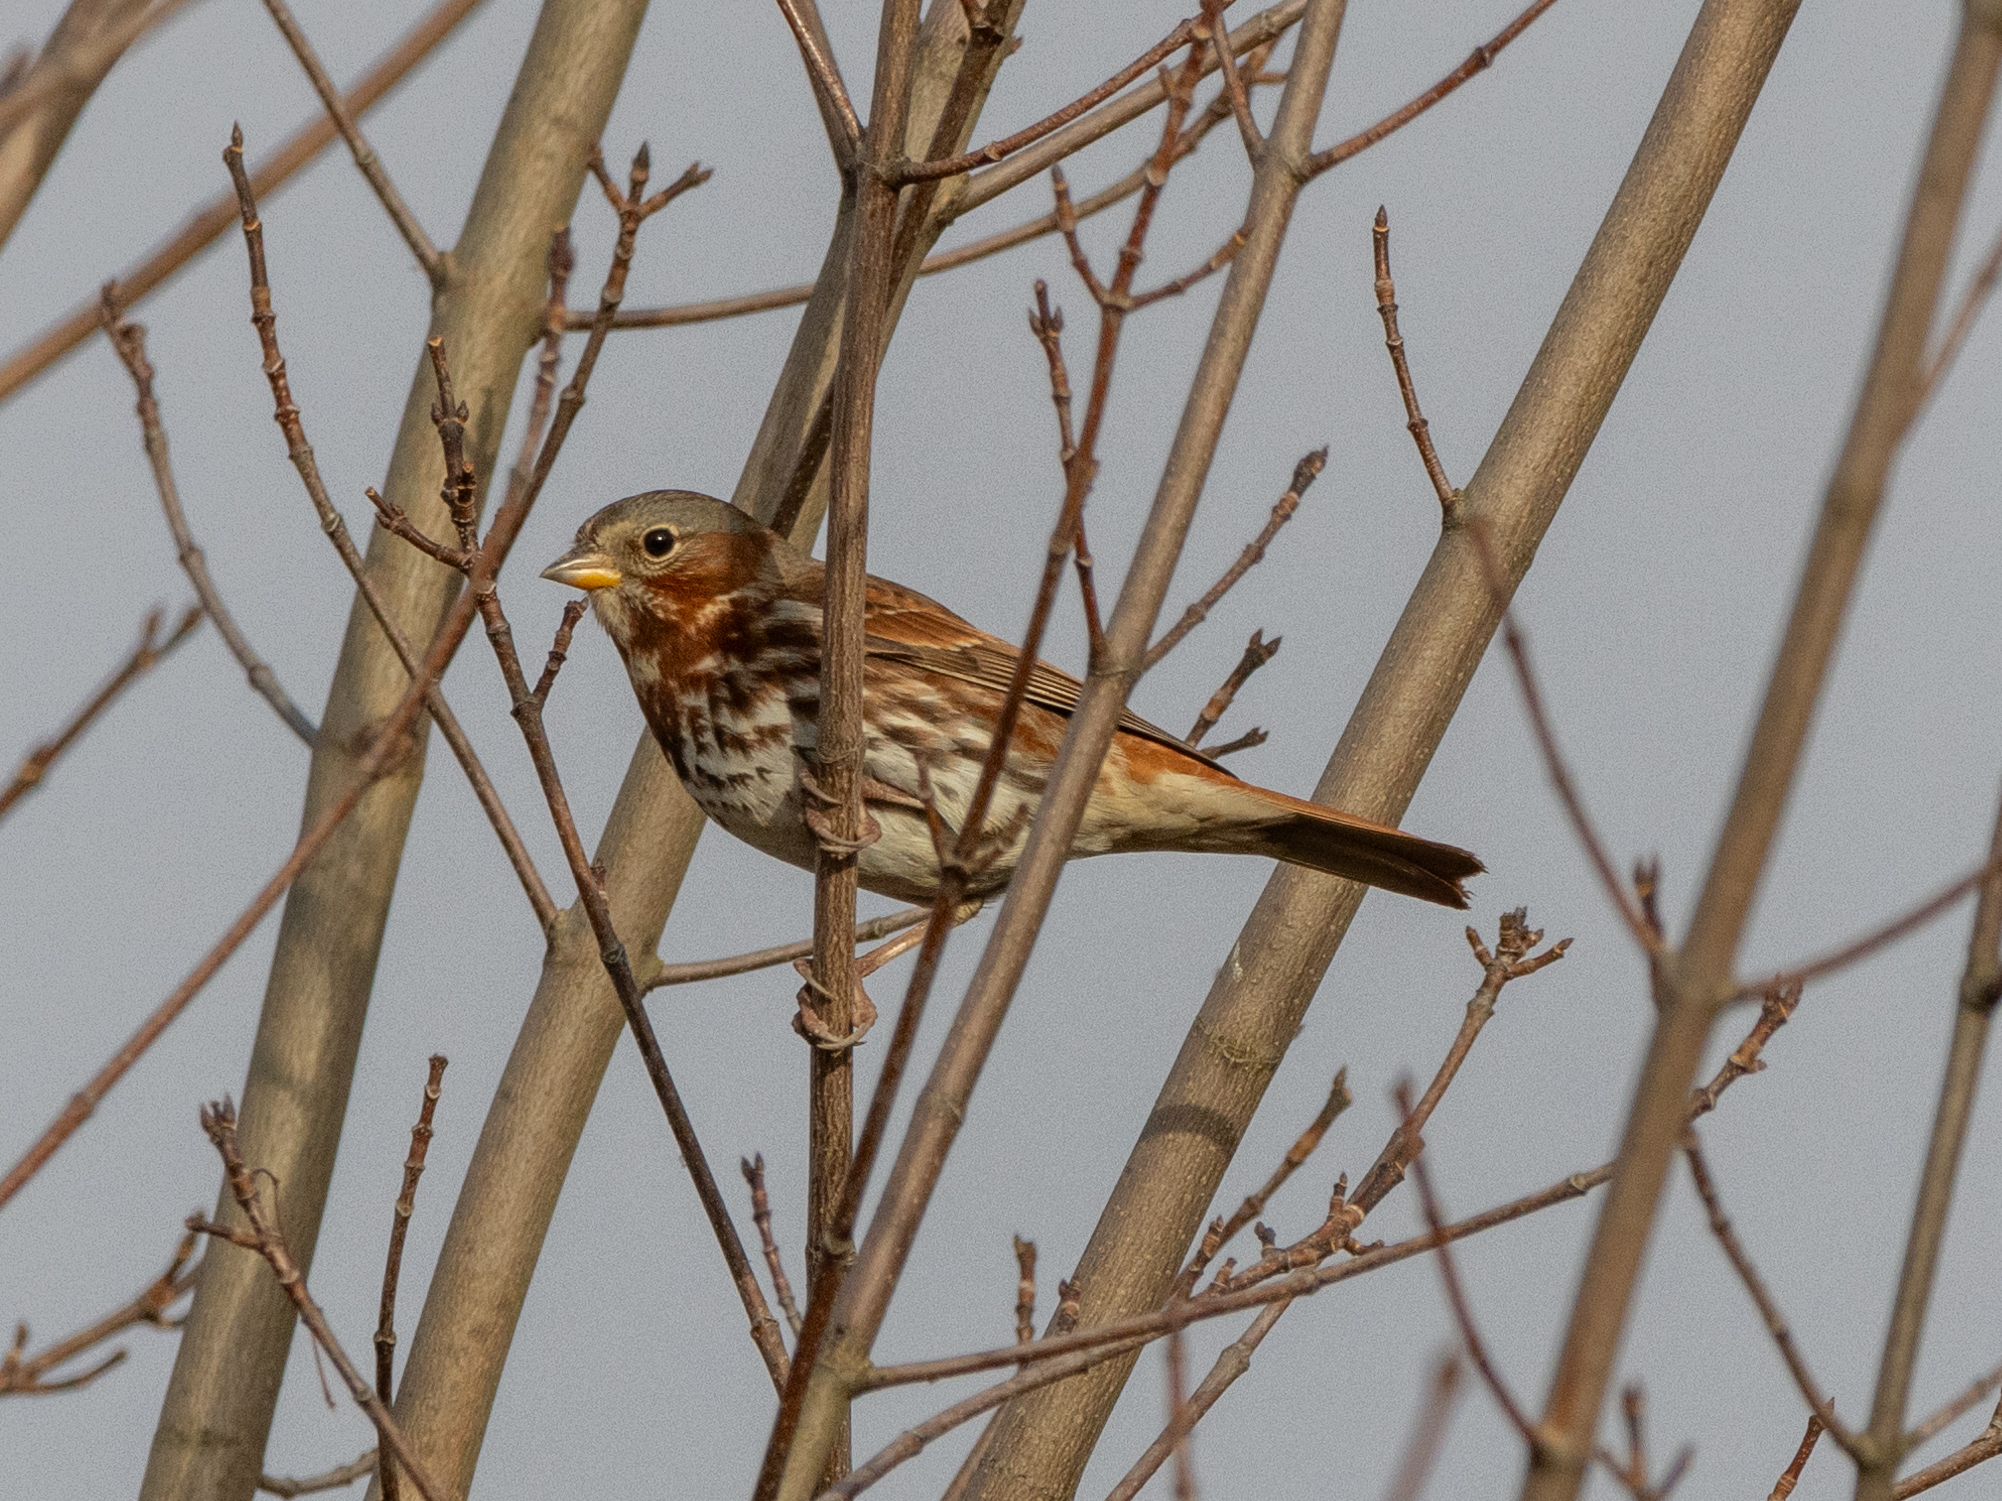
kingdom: Animalia
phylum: Chordata
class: Aves
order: Passeriformes
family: Passerellidae
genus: Passerella
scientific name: Passerella iliaca
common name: Fox sparrow
